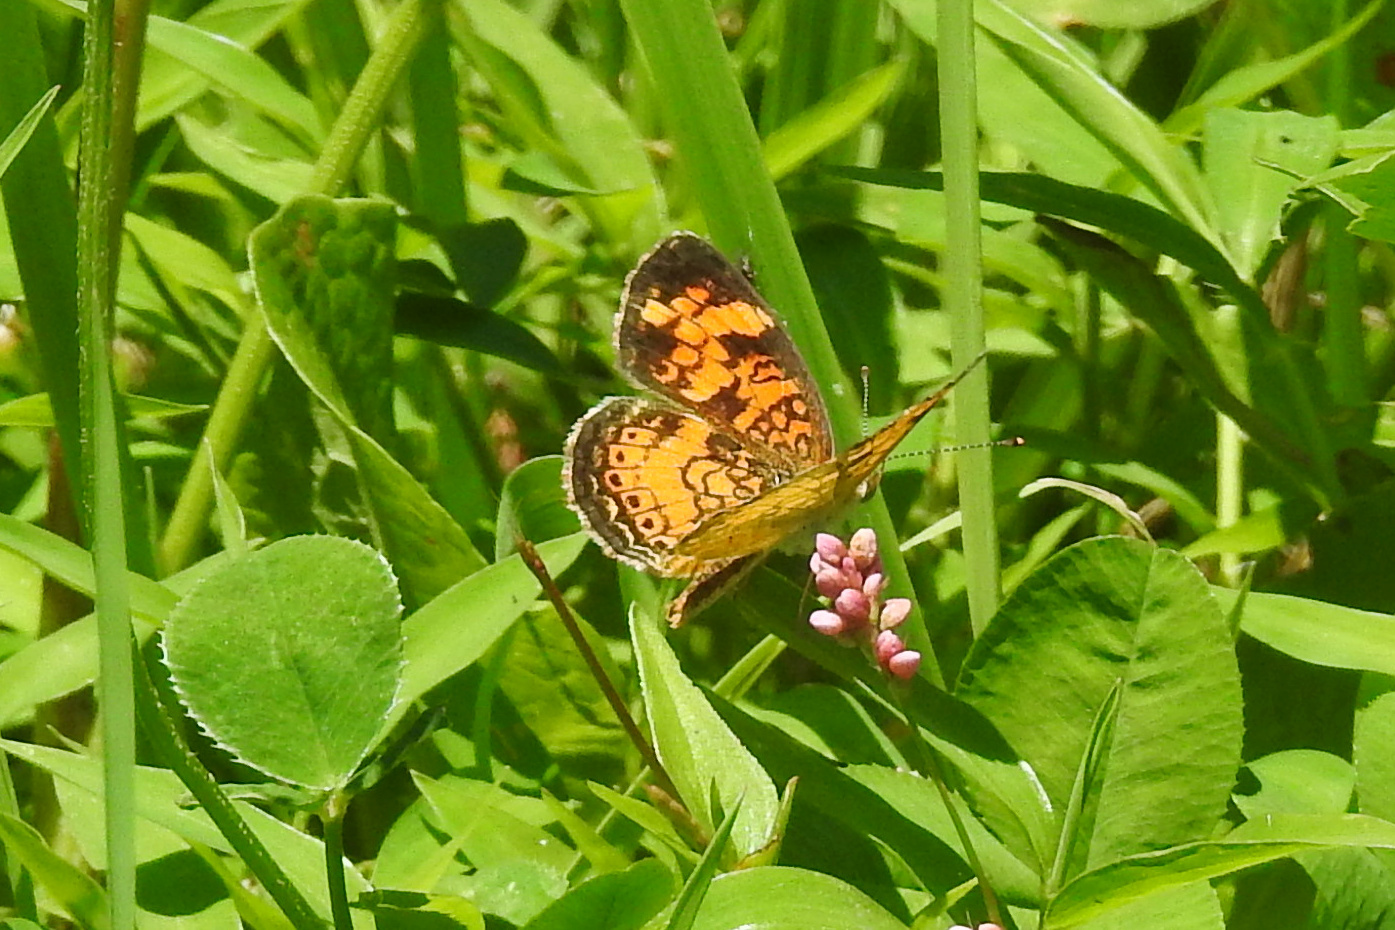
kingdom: Animalia
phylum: Arthropoda
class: Insecta
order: Lepidoptera
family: Nymphalidae
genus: Phyciodes
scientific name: Phyciodes tharos
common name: Pearl crescent
